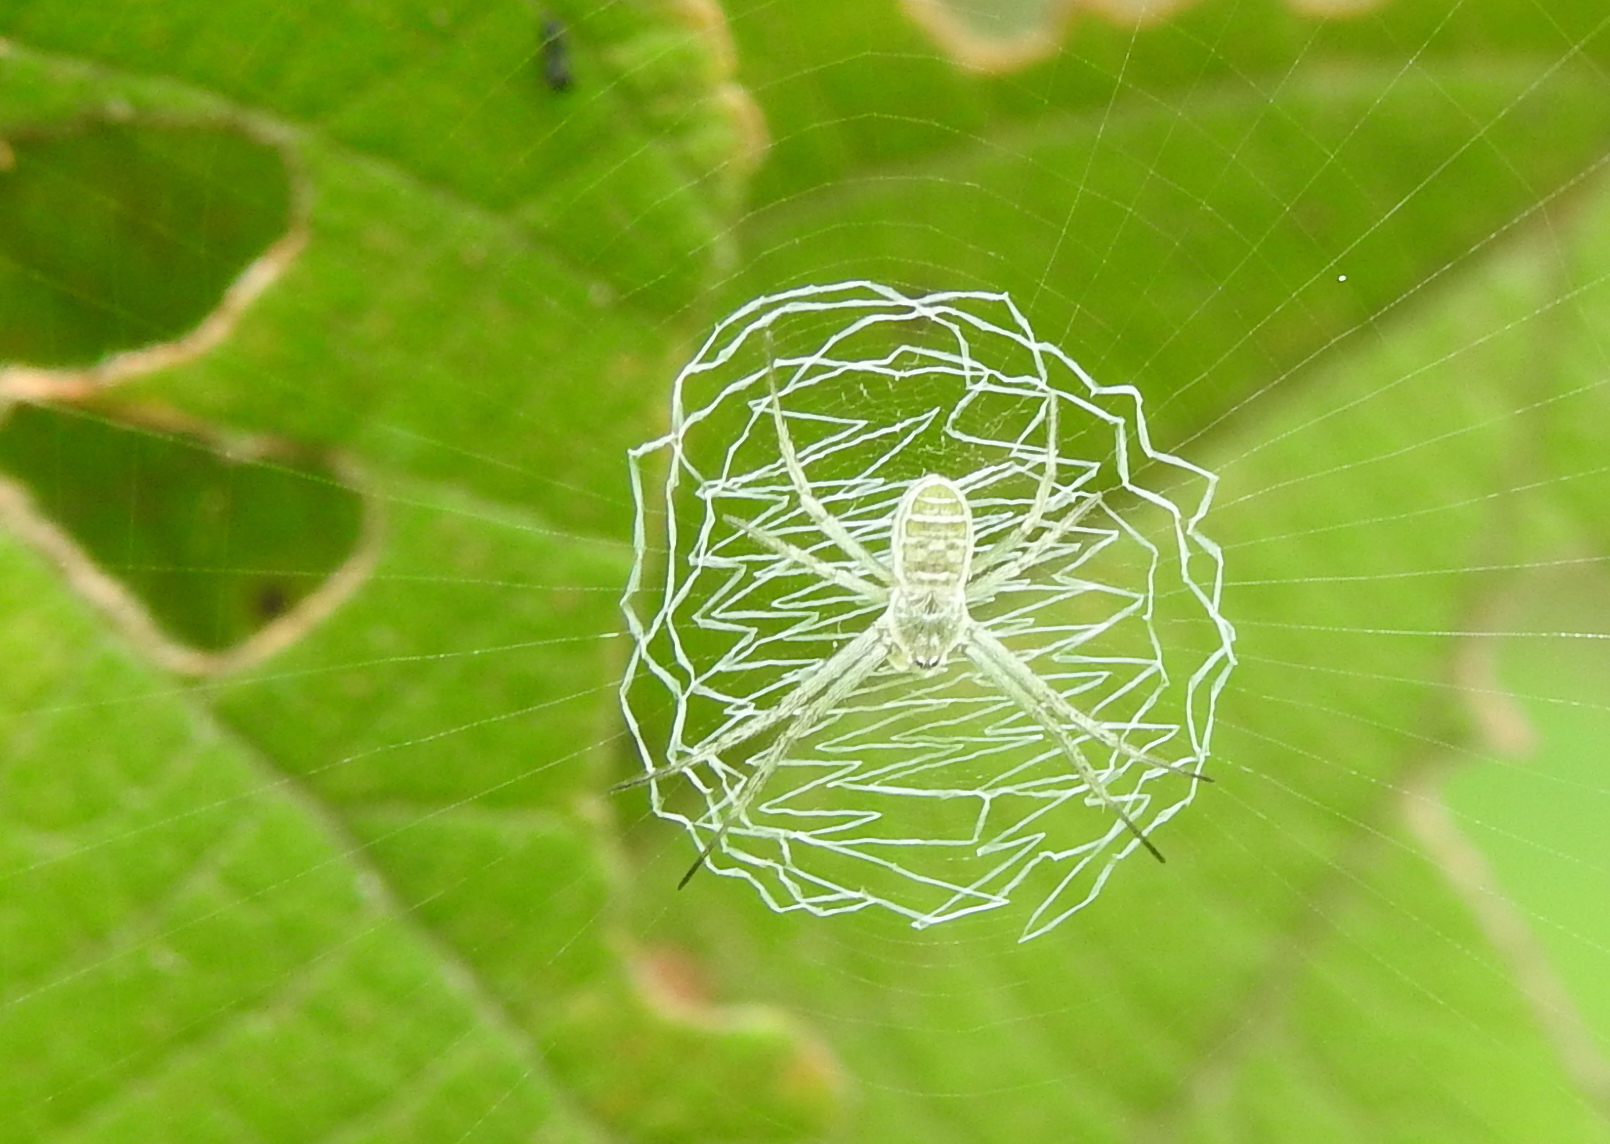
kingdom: Animalia
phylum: Arthropoda
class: Arachnida
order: Araneae
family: Araneidae
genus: Argiope
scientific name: Argiope chloreides
